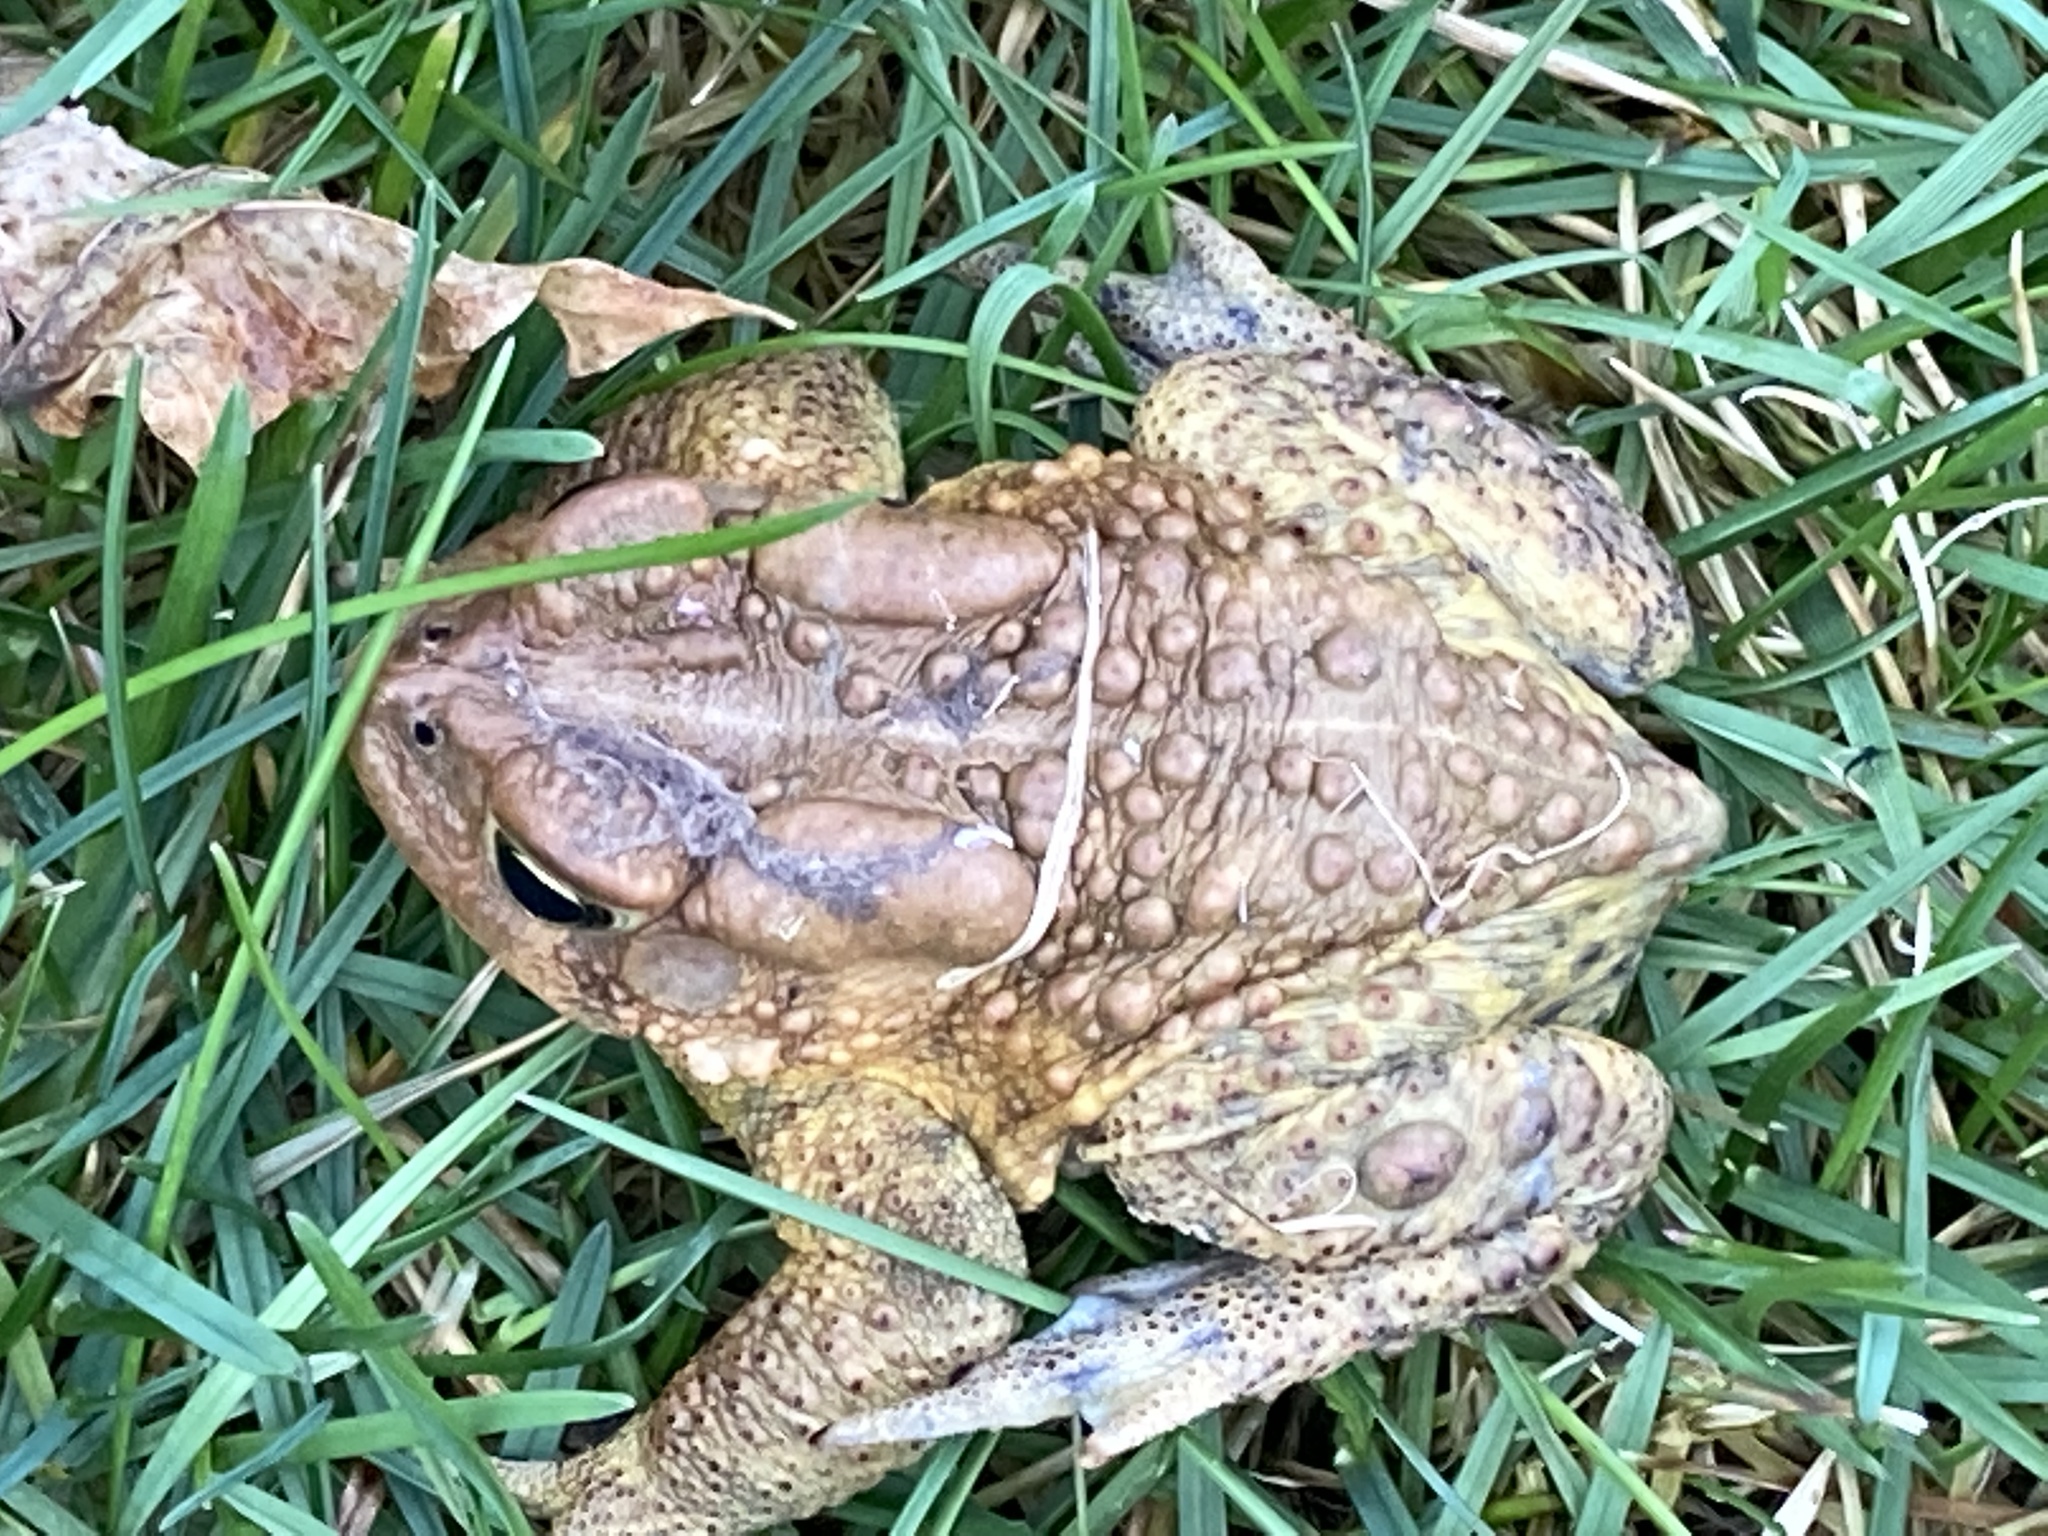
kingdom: Animalia
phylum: Chordata
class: Amphibia
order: Anura
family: Bufonidae
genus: Anaxyrus
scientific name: Anaxyrus americanus
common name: American toad
